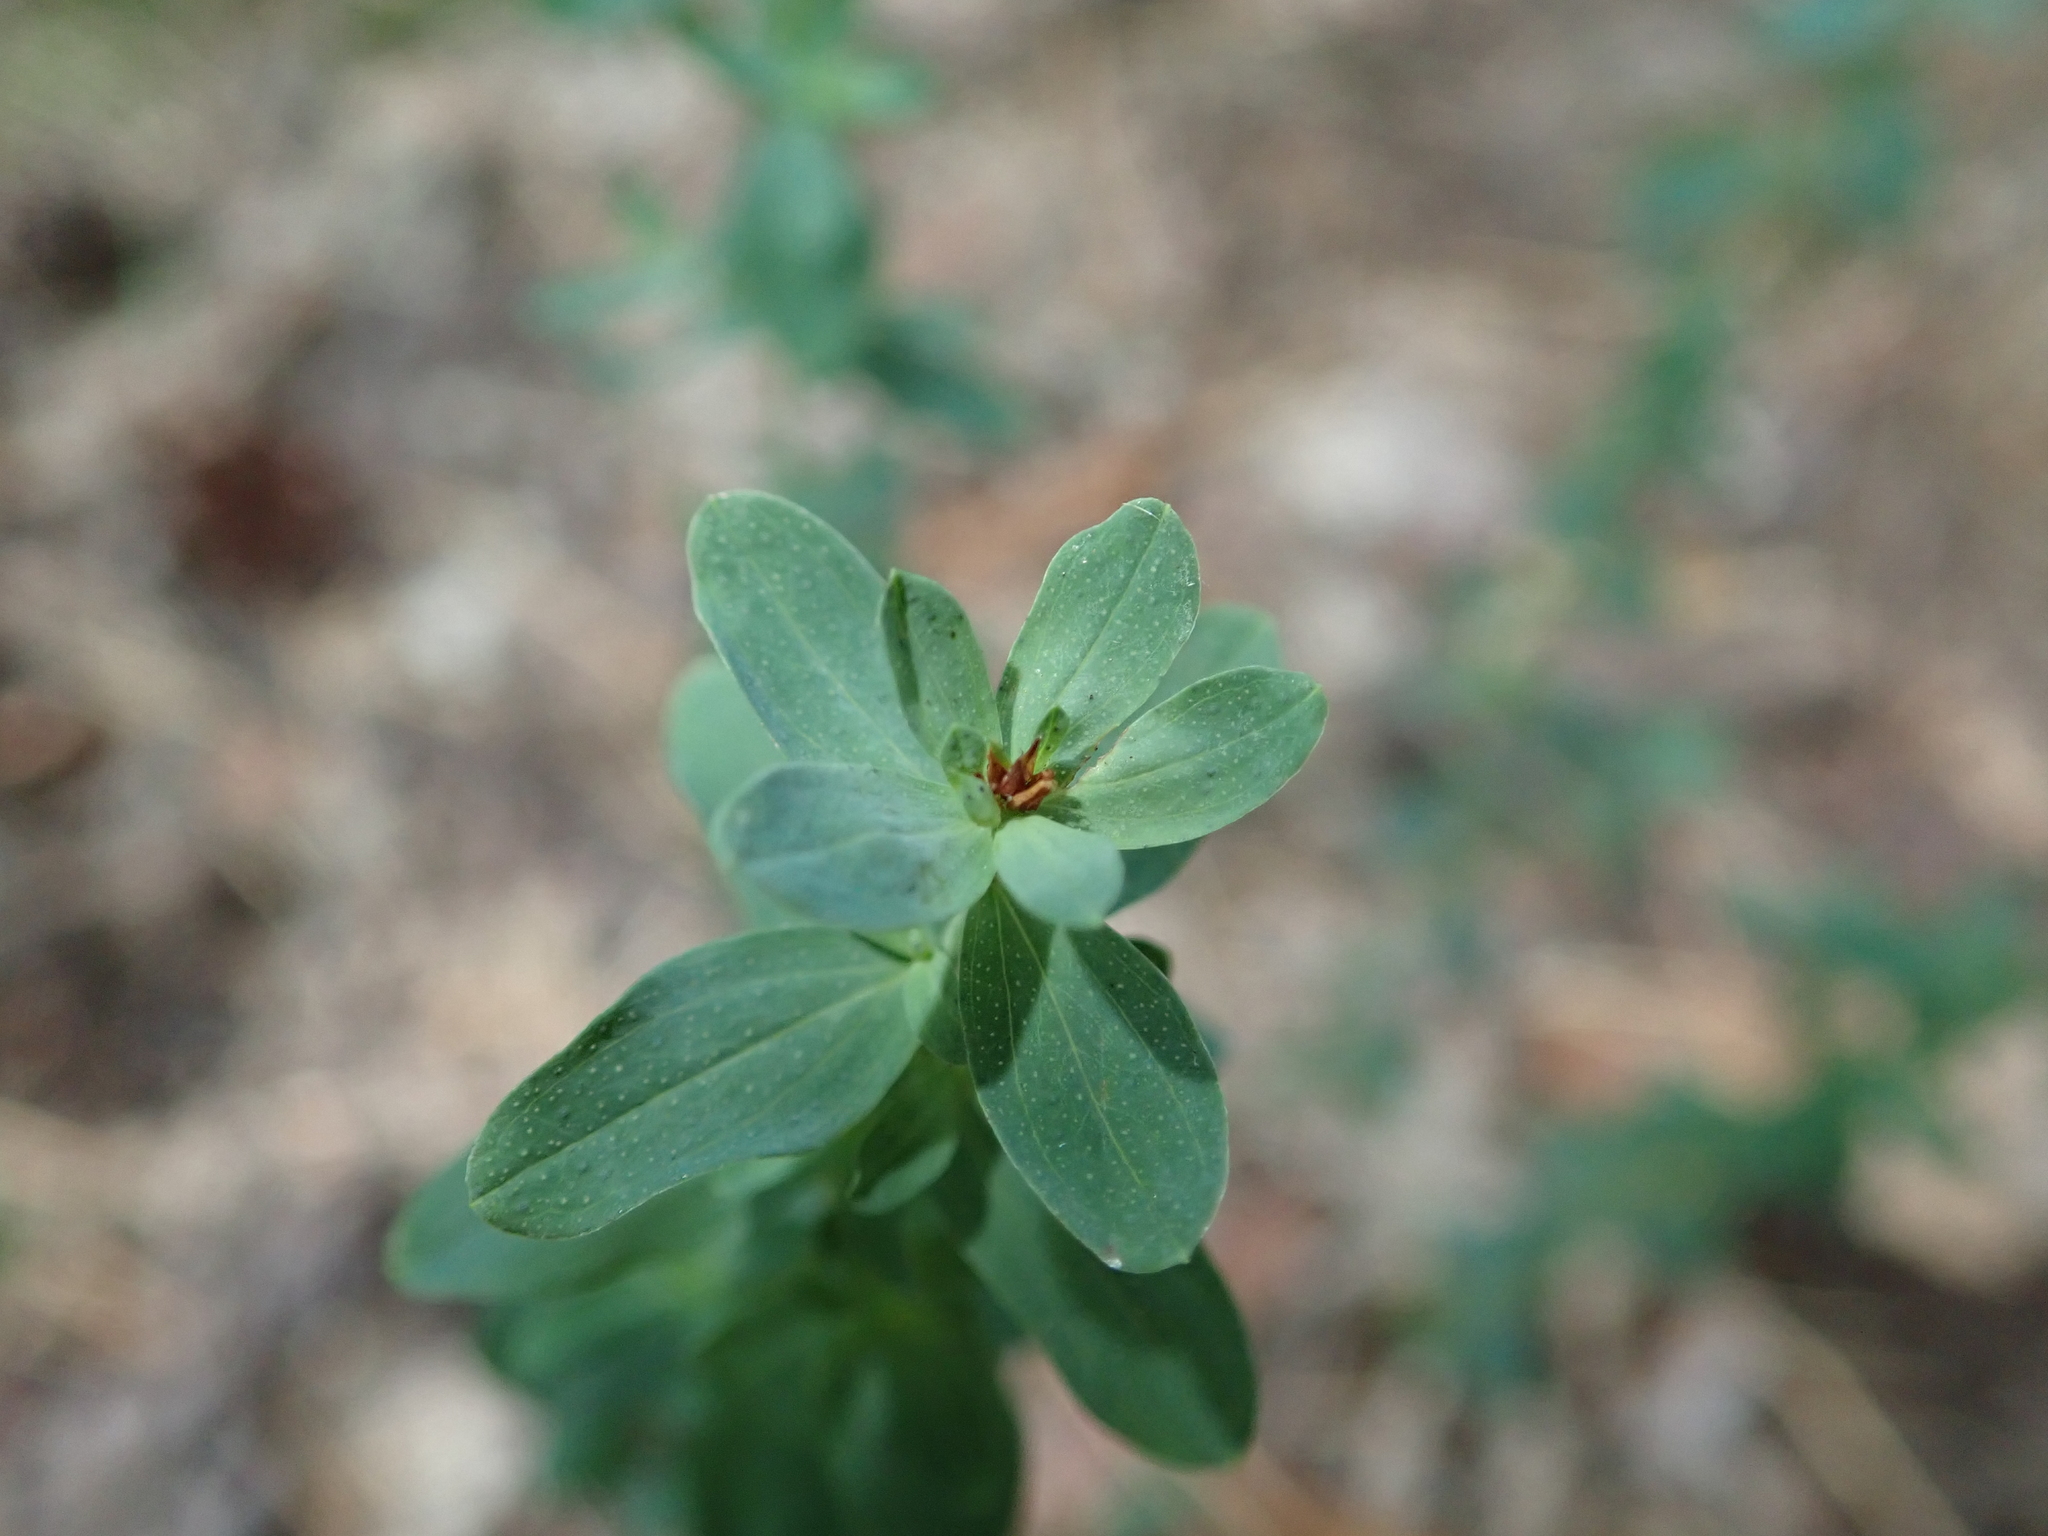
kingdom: Plantae
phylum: Tracheophyta
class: Magnoliopsida
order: Malpighiales
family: Hypericaceae
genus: Hypericum
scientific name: Hypericum perforatum
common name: Common st. johnswort
